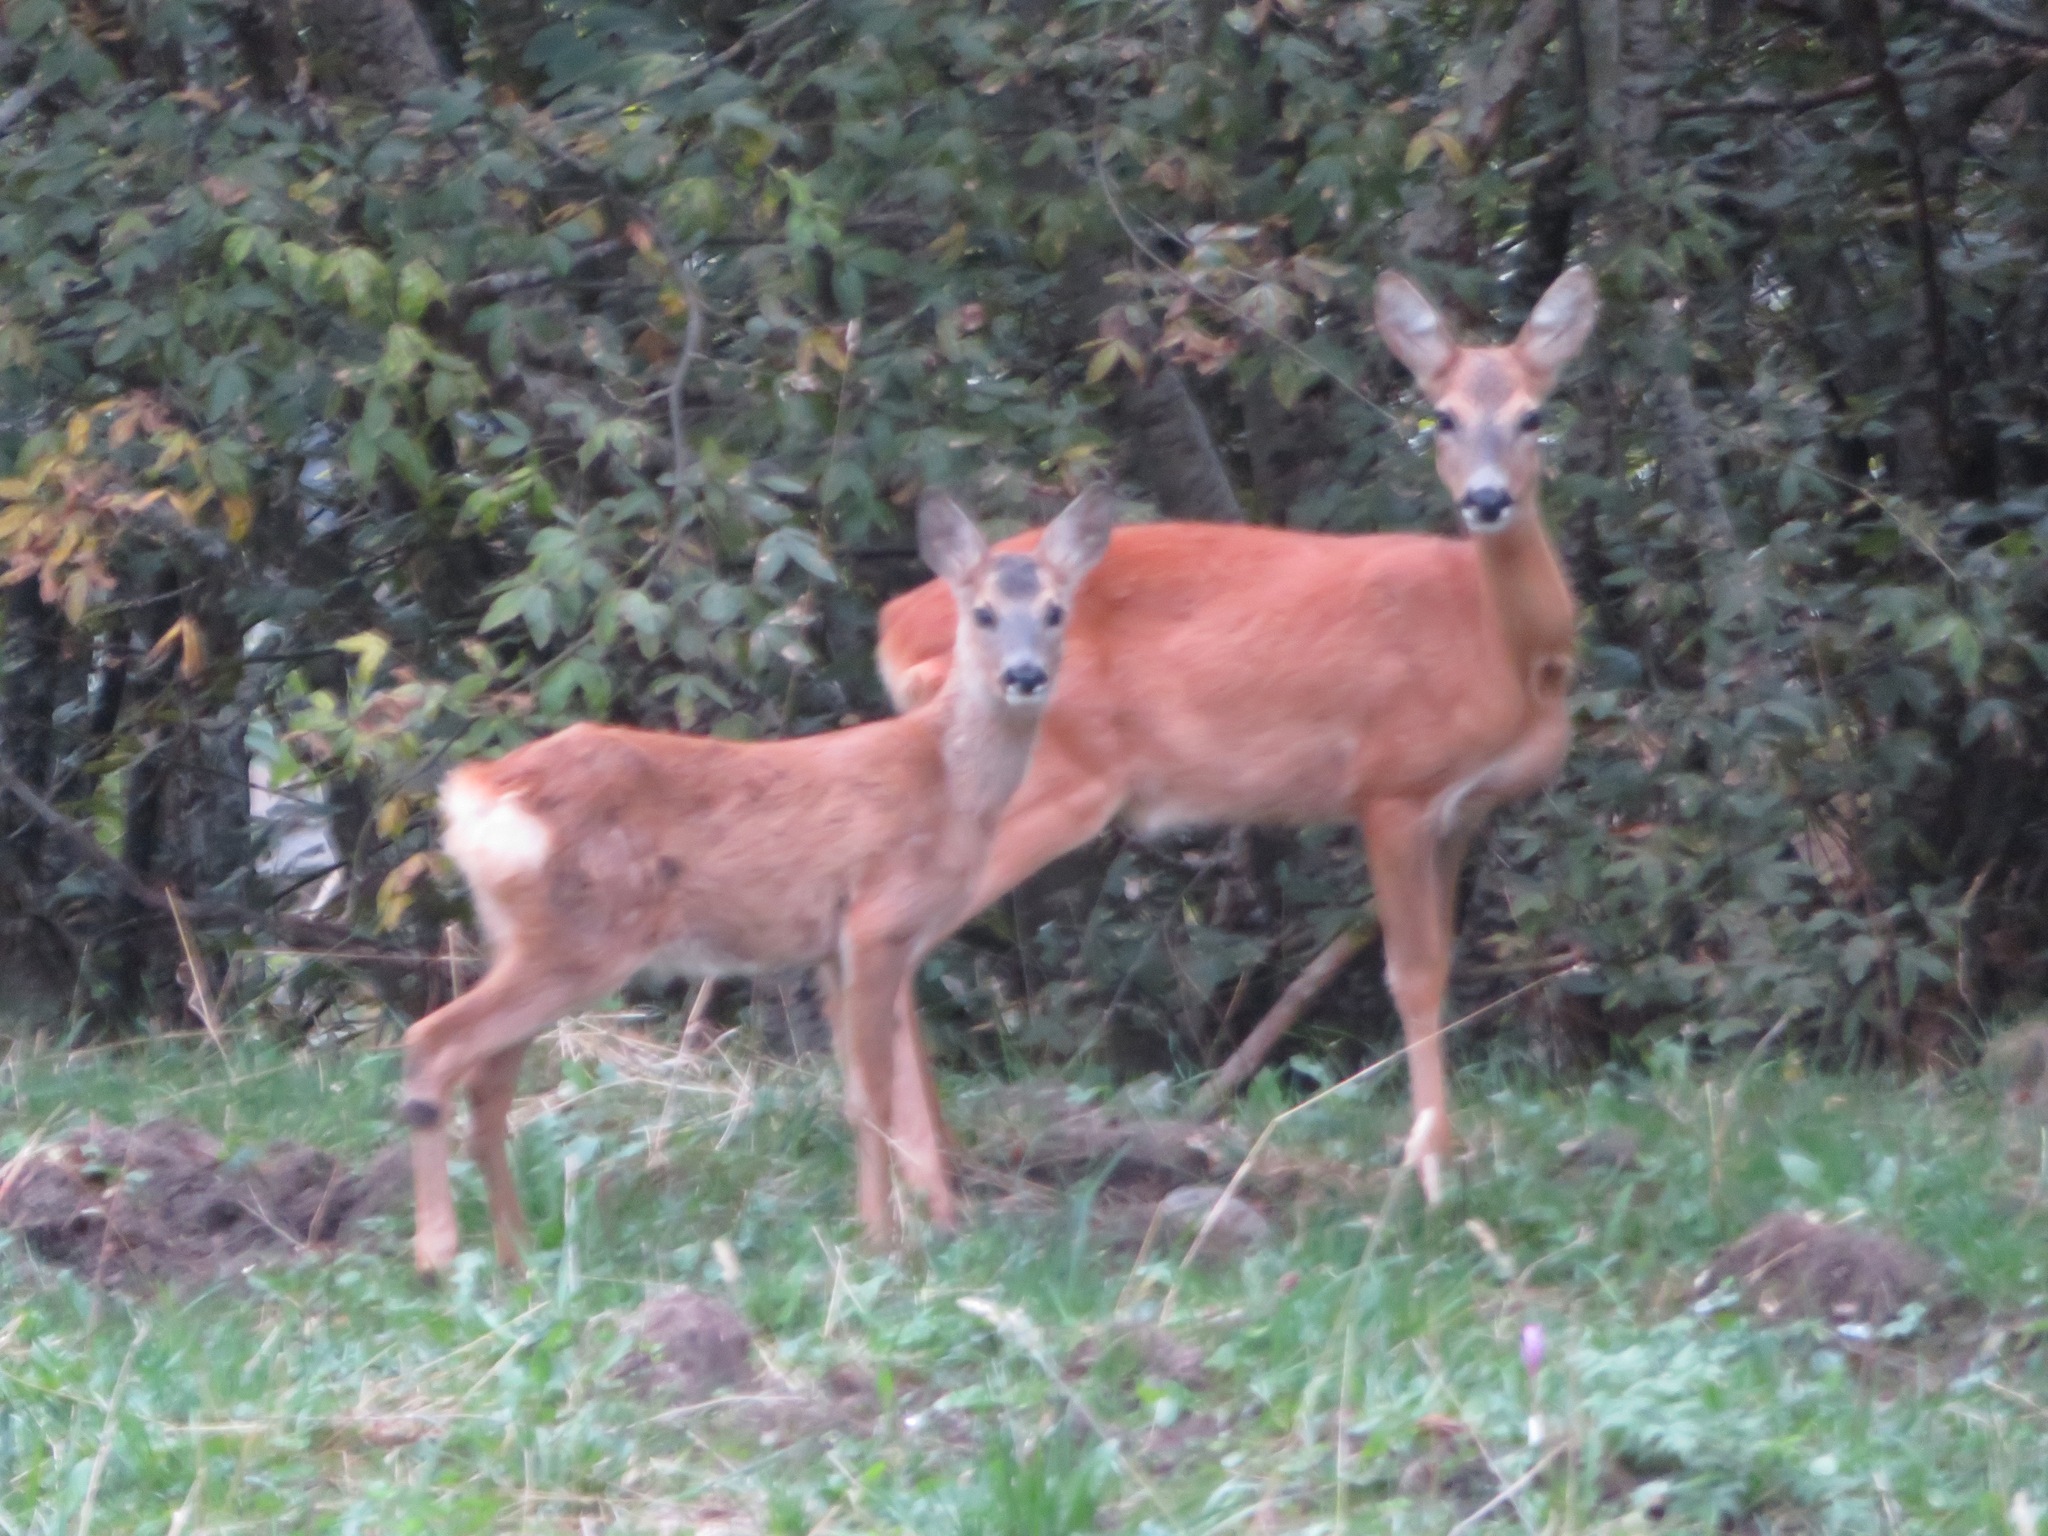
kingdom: Animalia
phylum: Chordata
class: Mammalia
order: Artiodactyla
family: Cervidae
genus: Capreolus
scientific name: Capreolus capreolus
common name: Western roe deer
